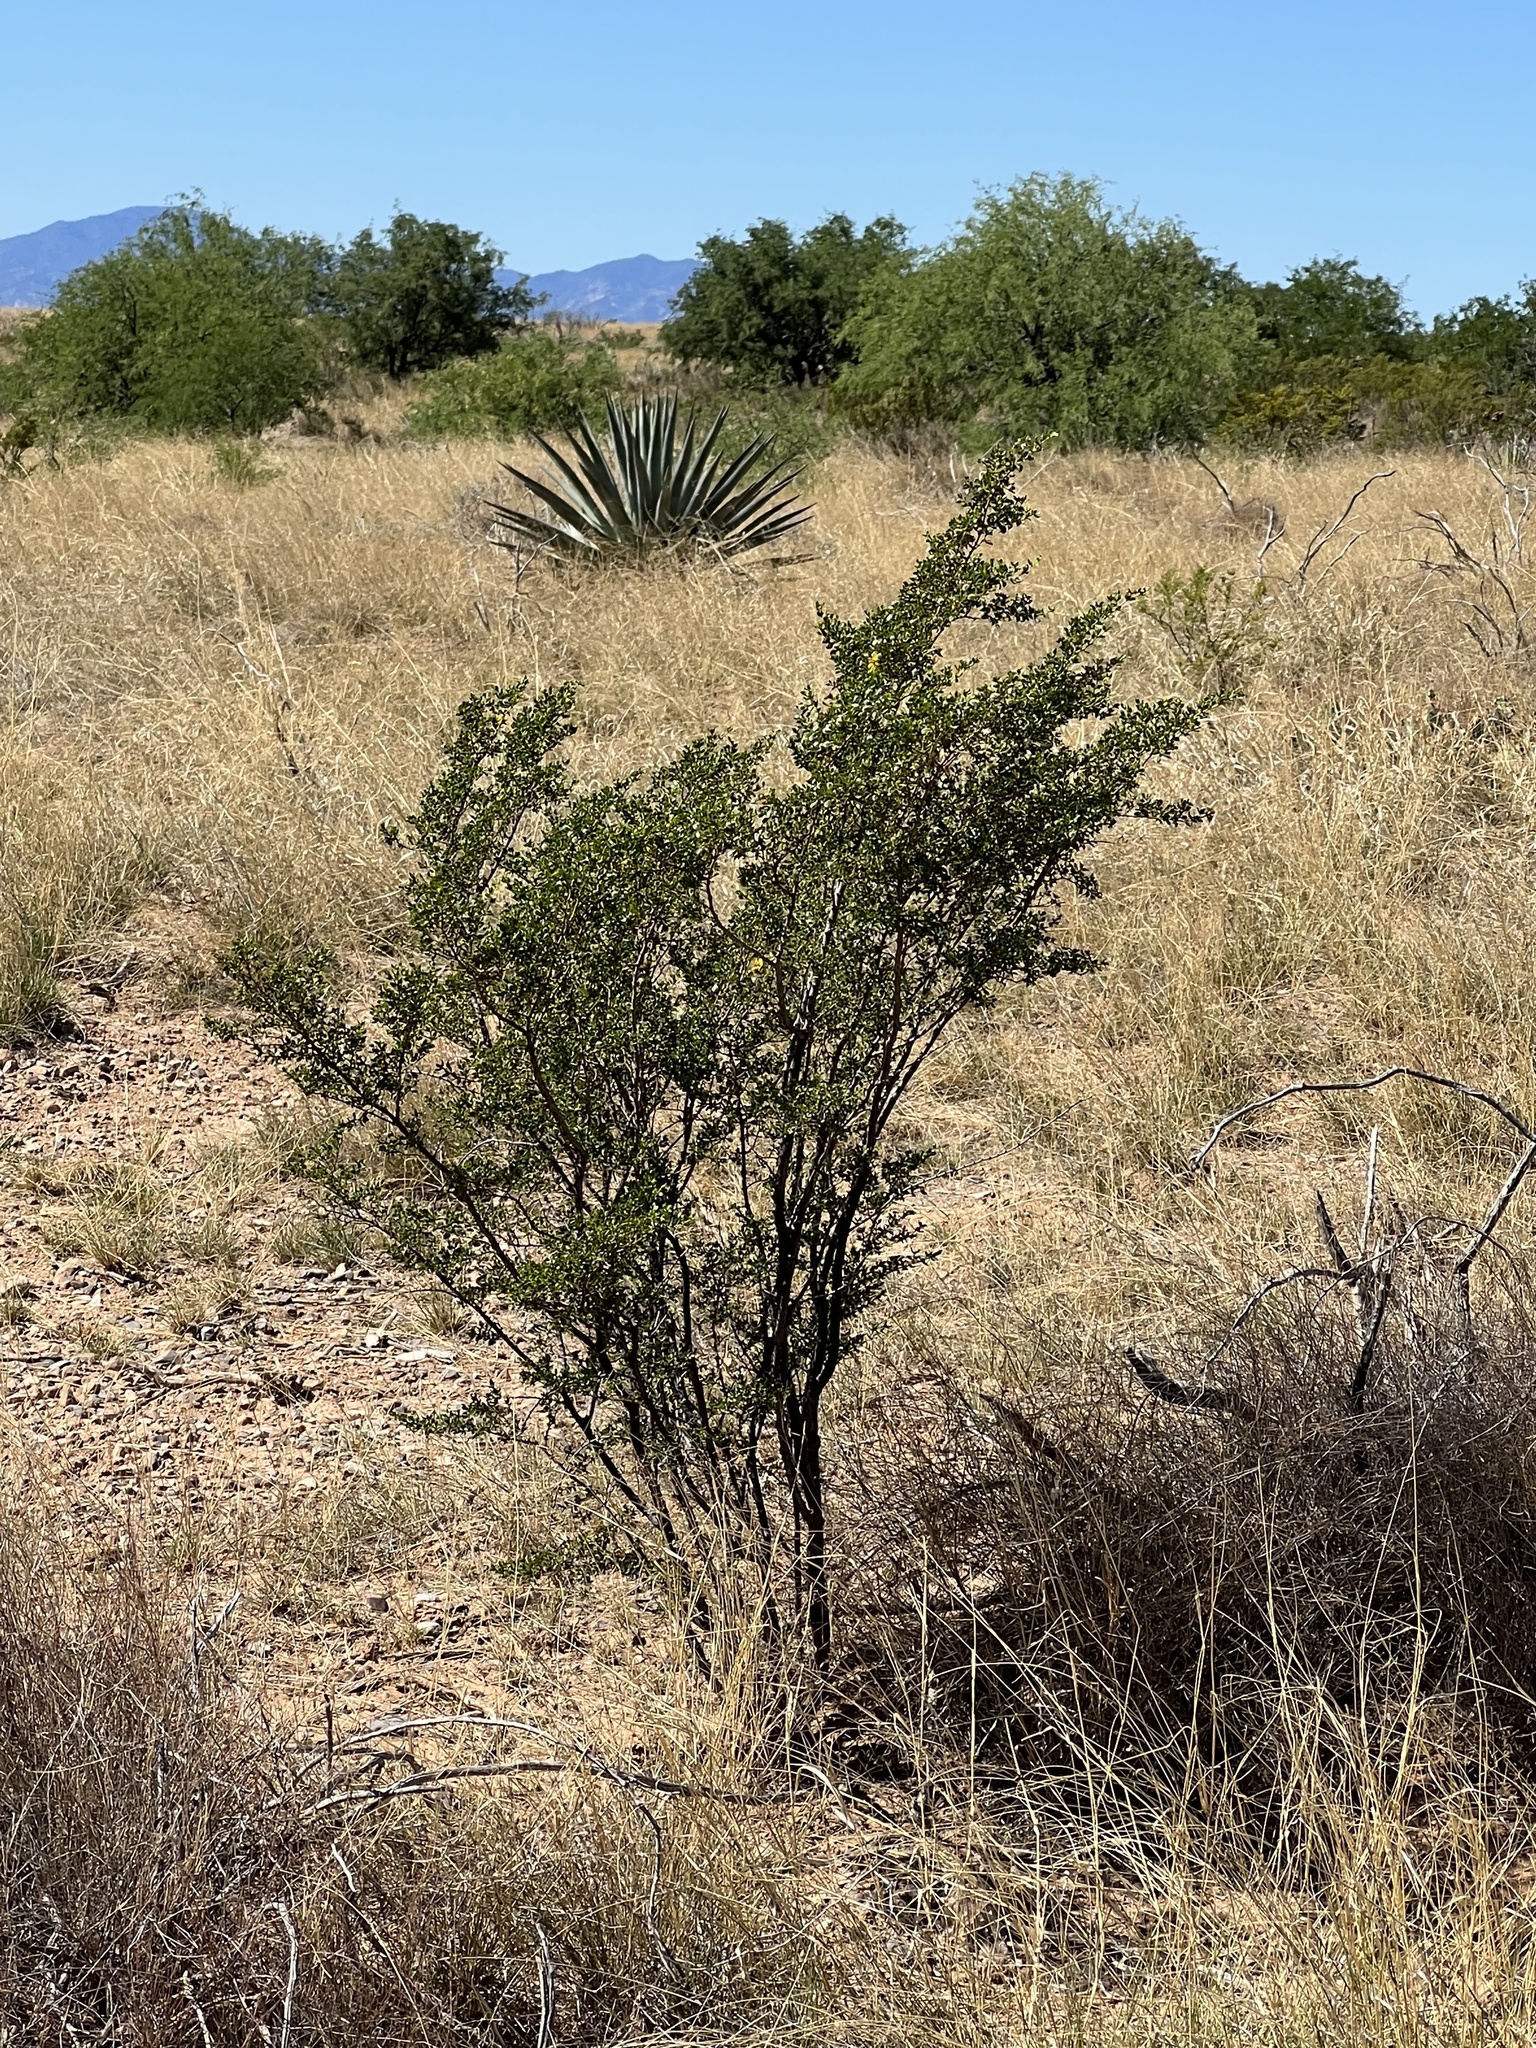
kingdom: Plantae
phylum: Tracheophyta
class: Magnoliopsida
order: Zygophyllales
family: Zygophyllaceae
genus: Larrea
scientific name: Larrea tridentata
